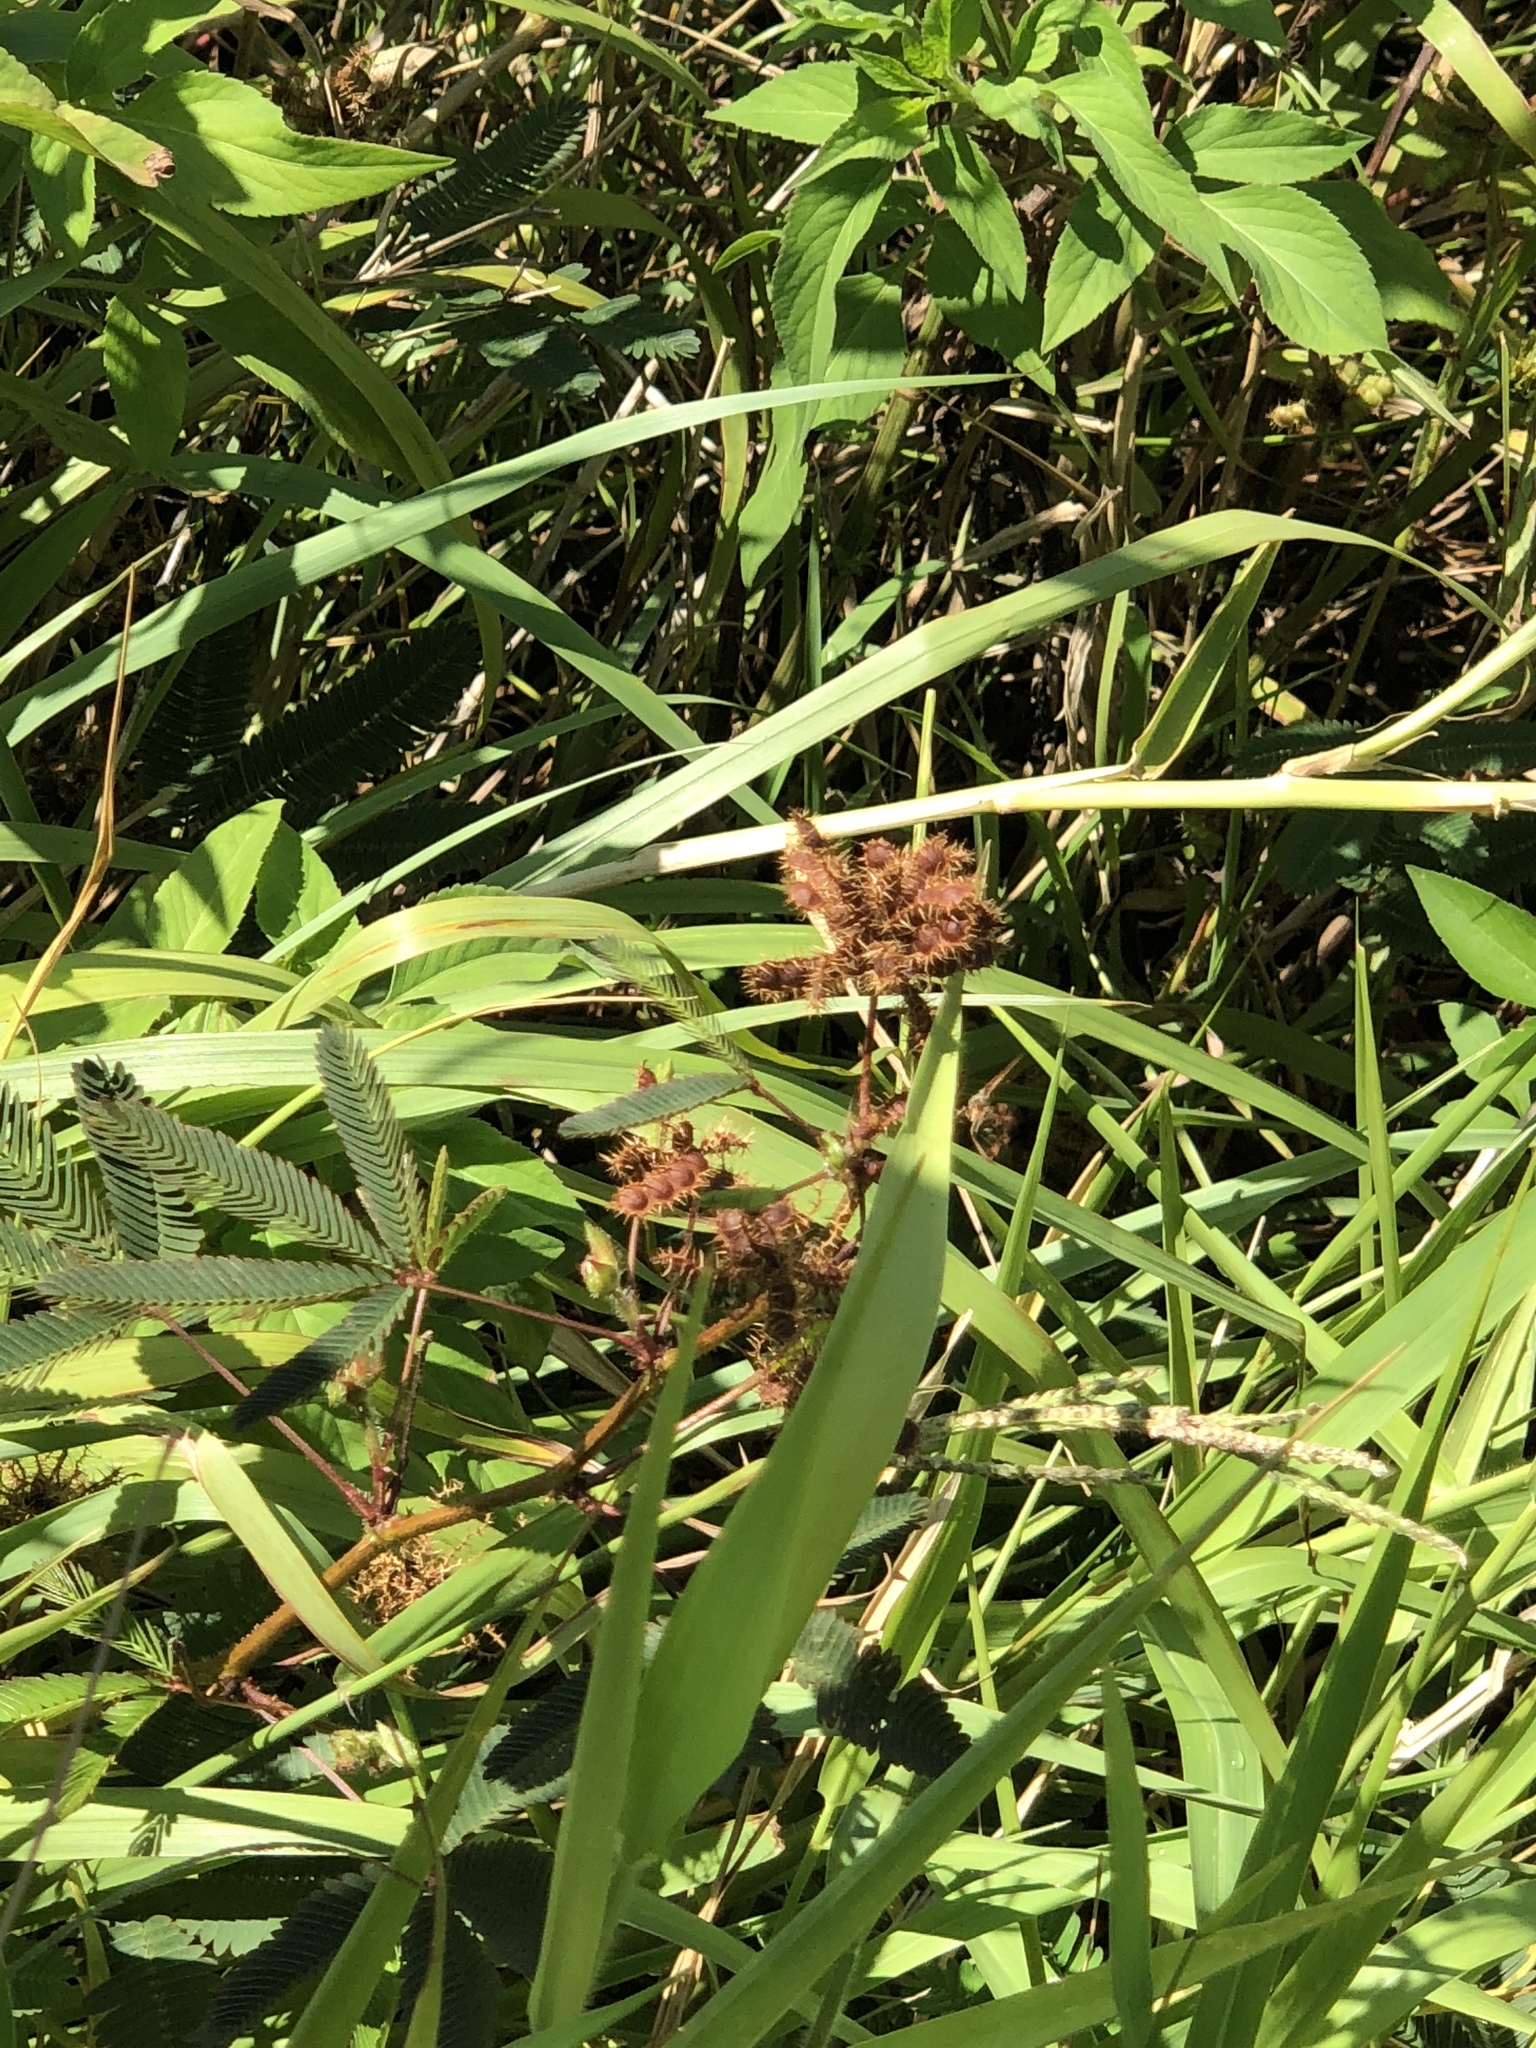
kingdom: Plantae
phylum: Tracheophyta
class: Magnoliopsida
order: Fabales
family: Fabaceae
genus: Mimosa
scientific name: Mimosa pudica
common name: Sensitive plant
